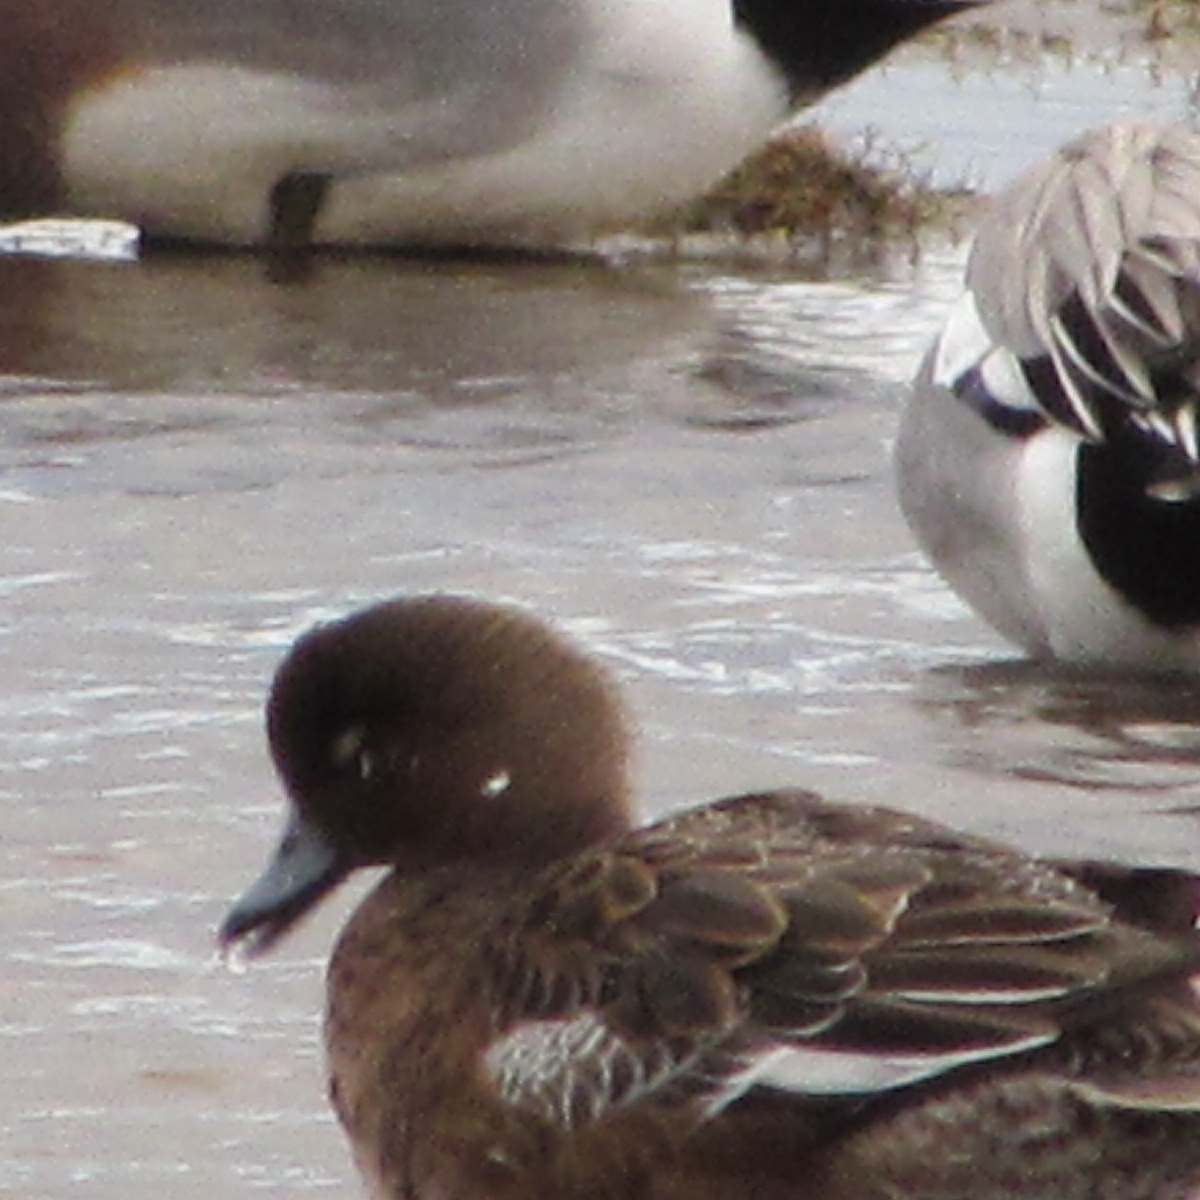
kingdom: Animalia
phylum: Chordata
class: Aves
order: Anseriformes
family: Anatidae
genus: Mareca
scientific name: Mareca penelope
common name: Eurasian wigeon
